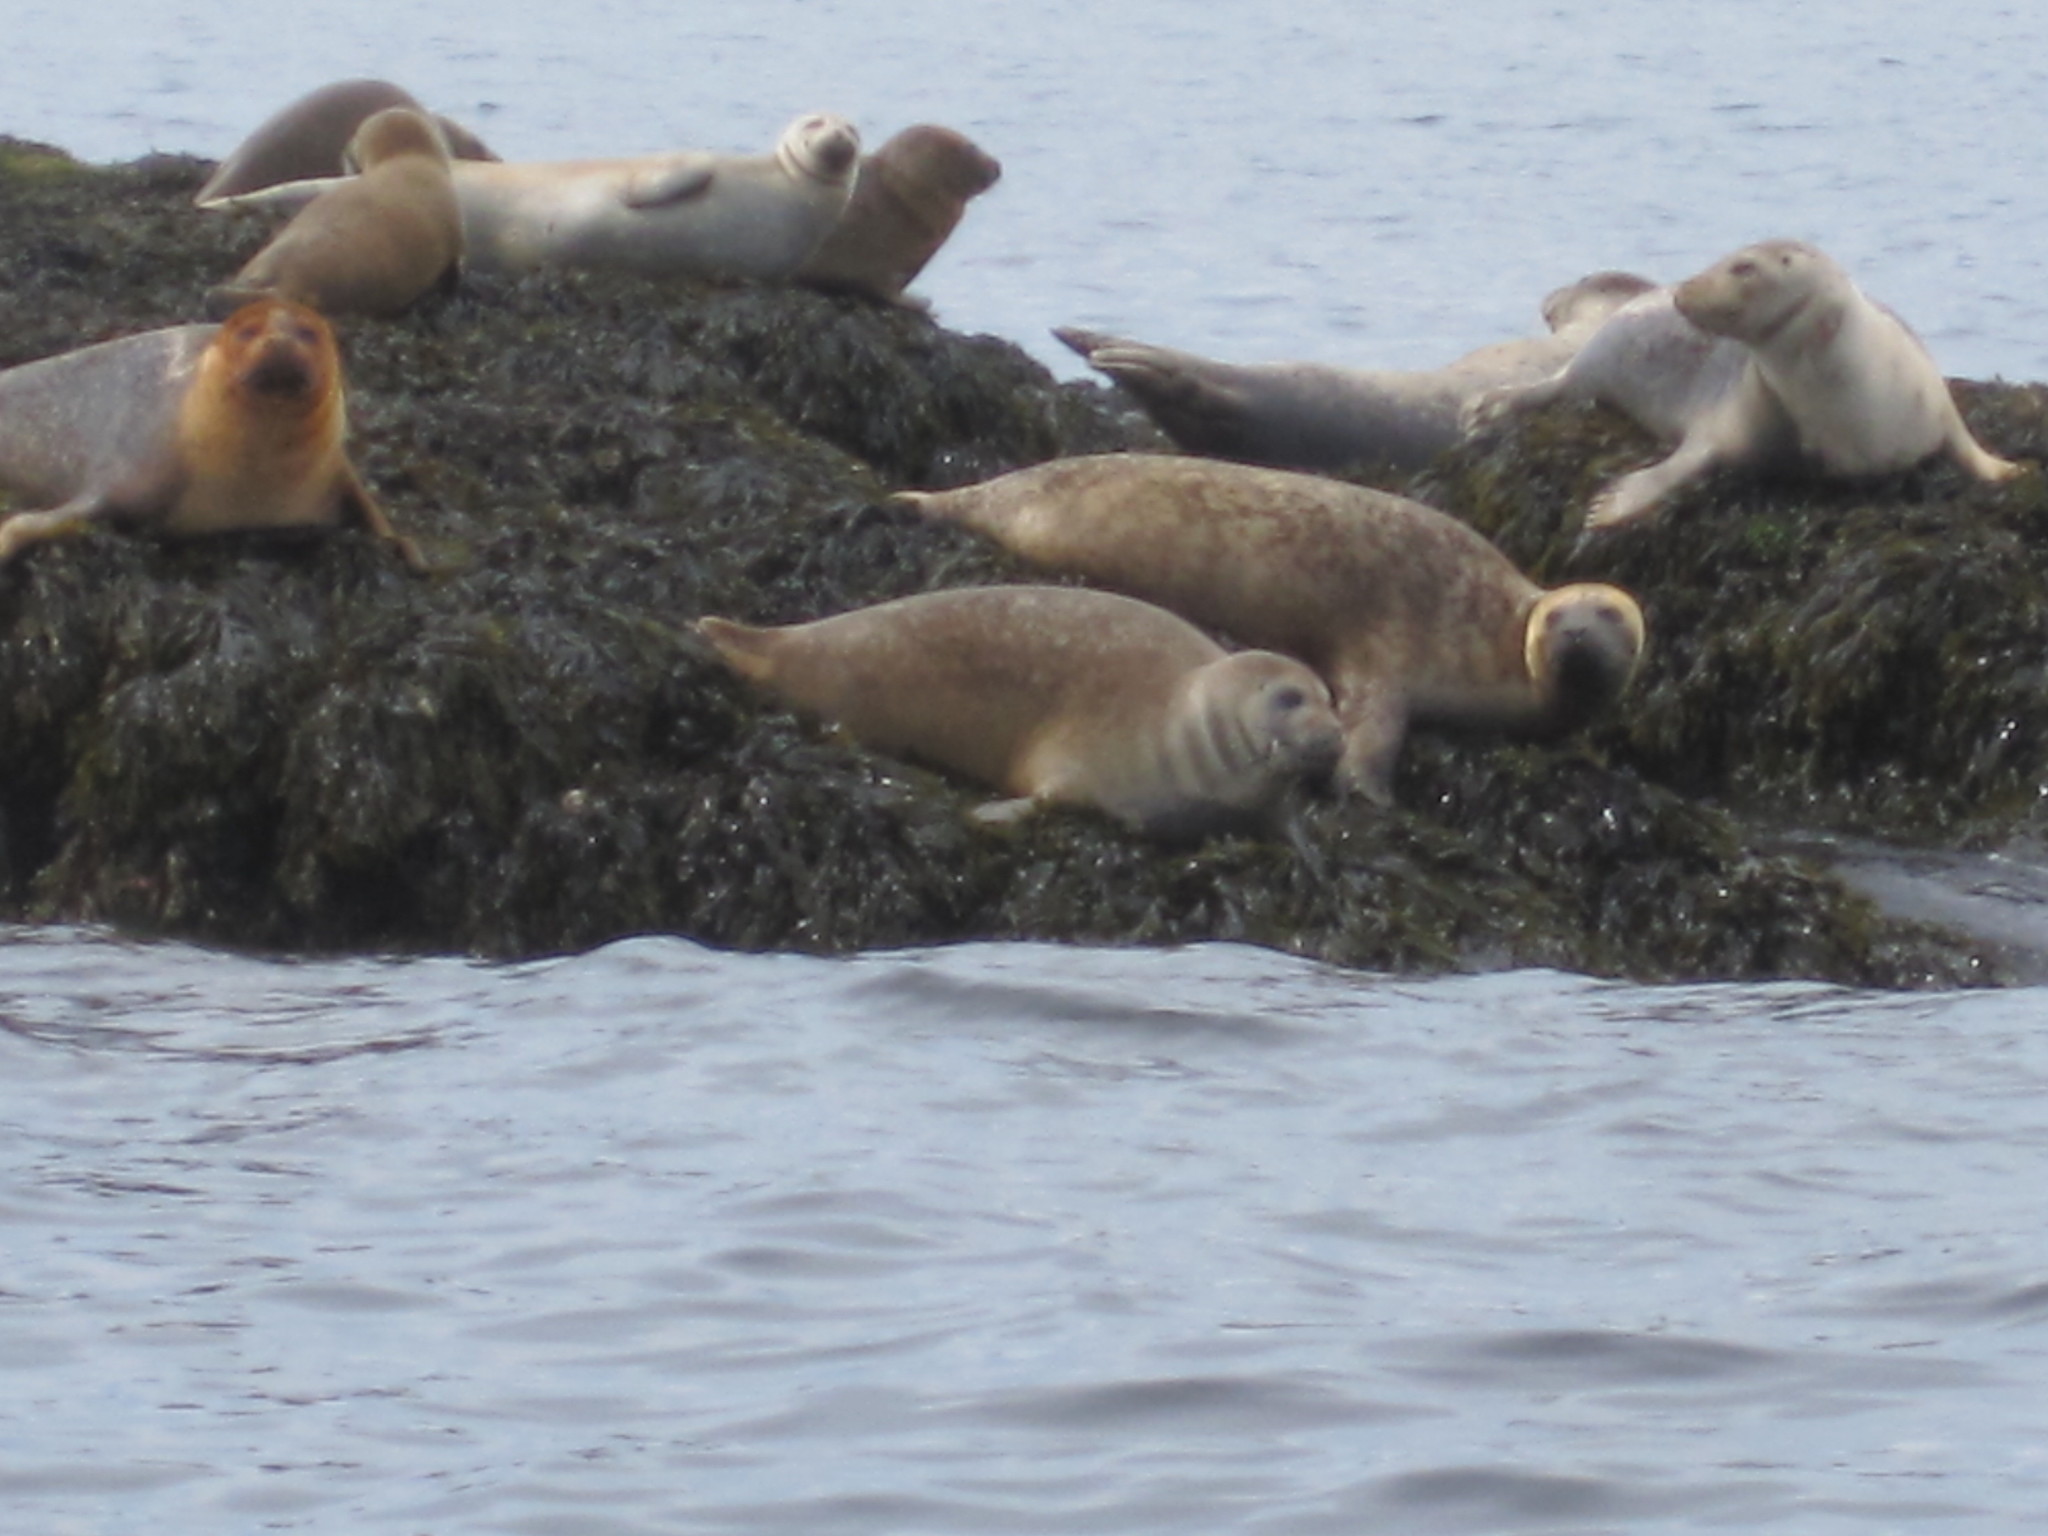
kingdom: Animalia
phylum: Chordata
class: Mammalia
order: Carnivora
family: Phocidae
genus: Phoca
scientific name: Phoca vitulina
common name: Harbor seal
